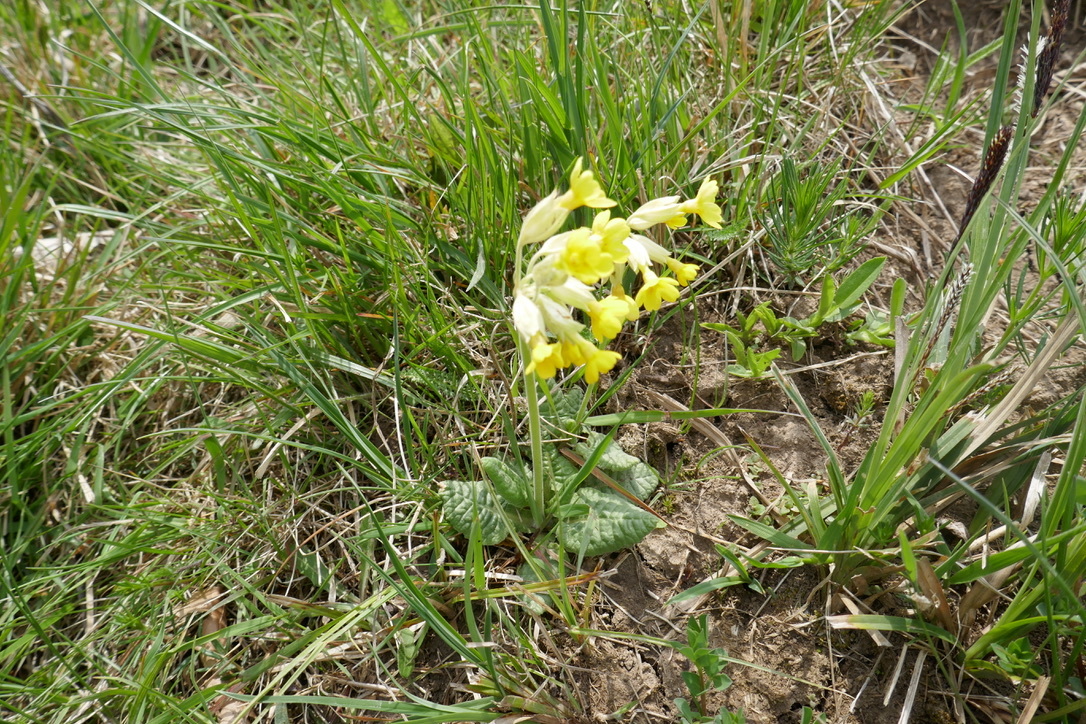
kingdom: Plantae
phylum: Tracheophyta
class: Magnoliopsida
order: Ericales
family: Primulaceae
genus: Primula
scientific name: Primula veris
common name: Cowslip
